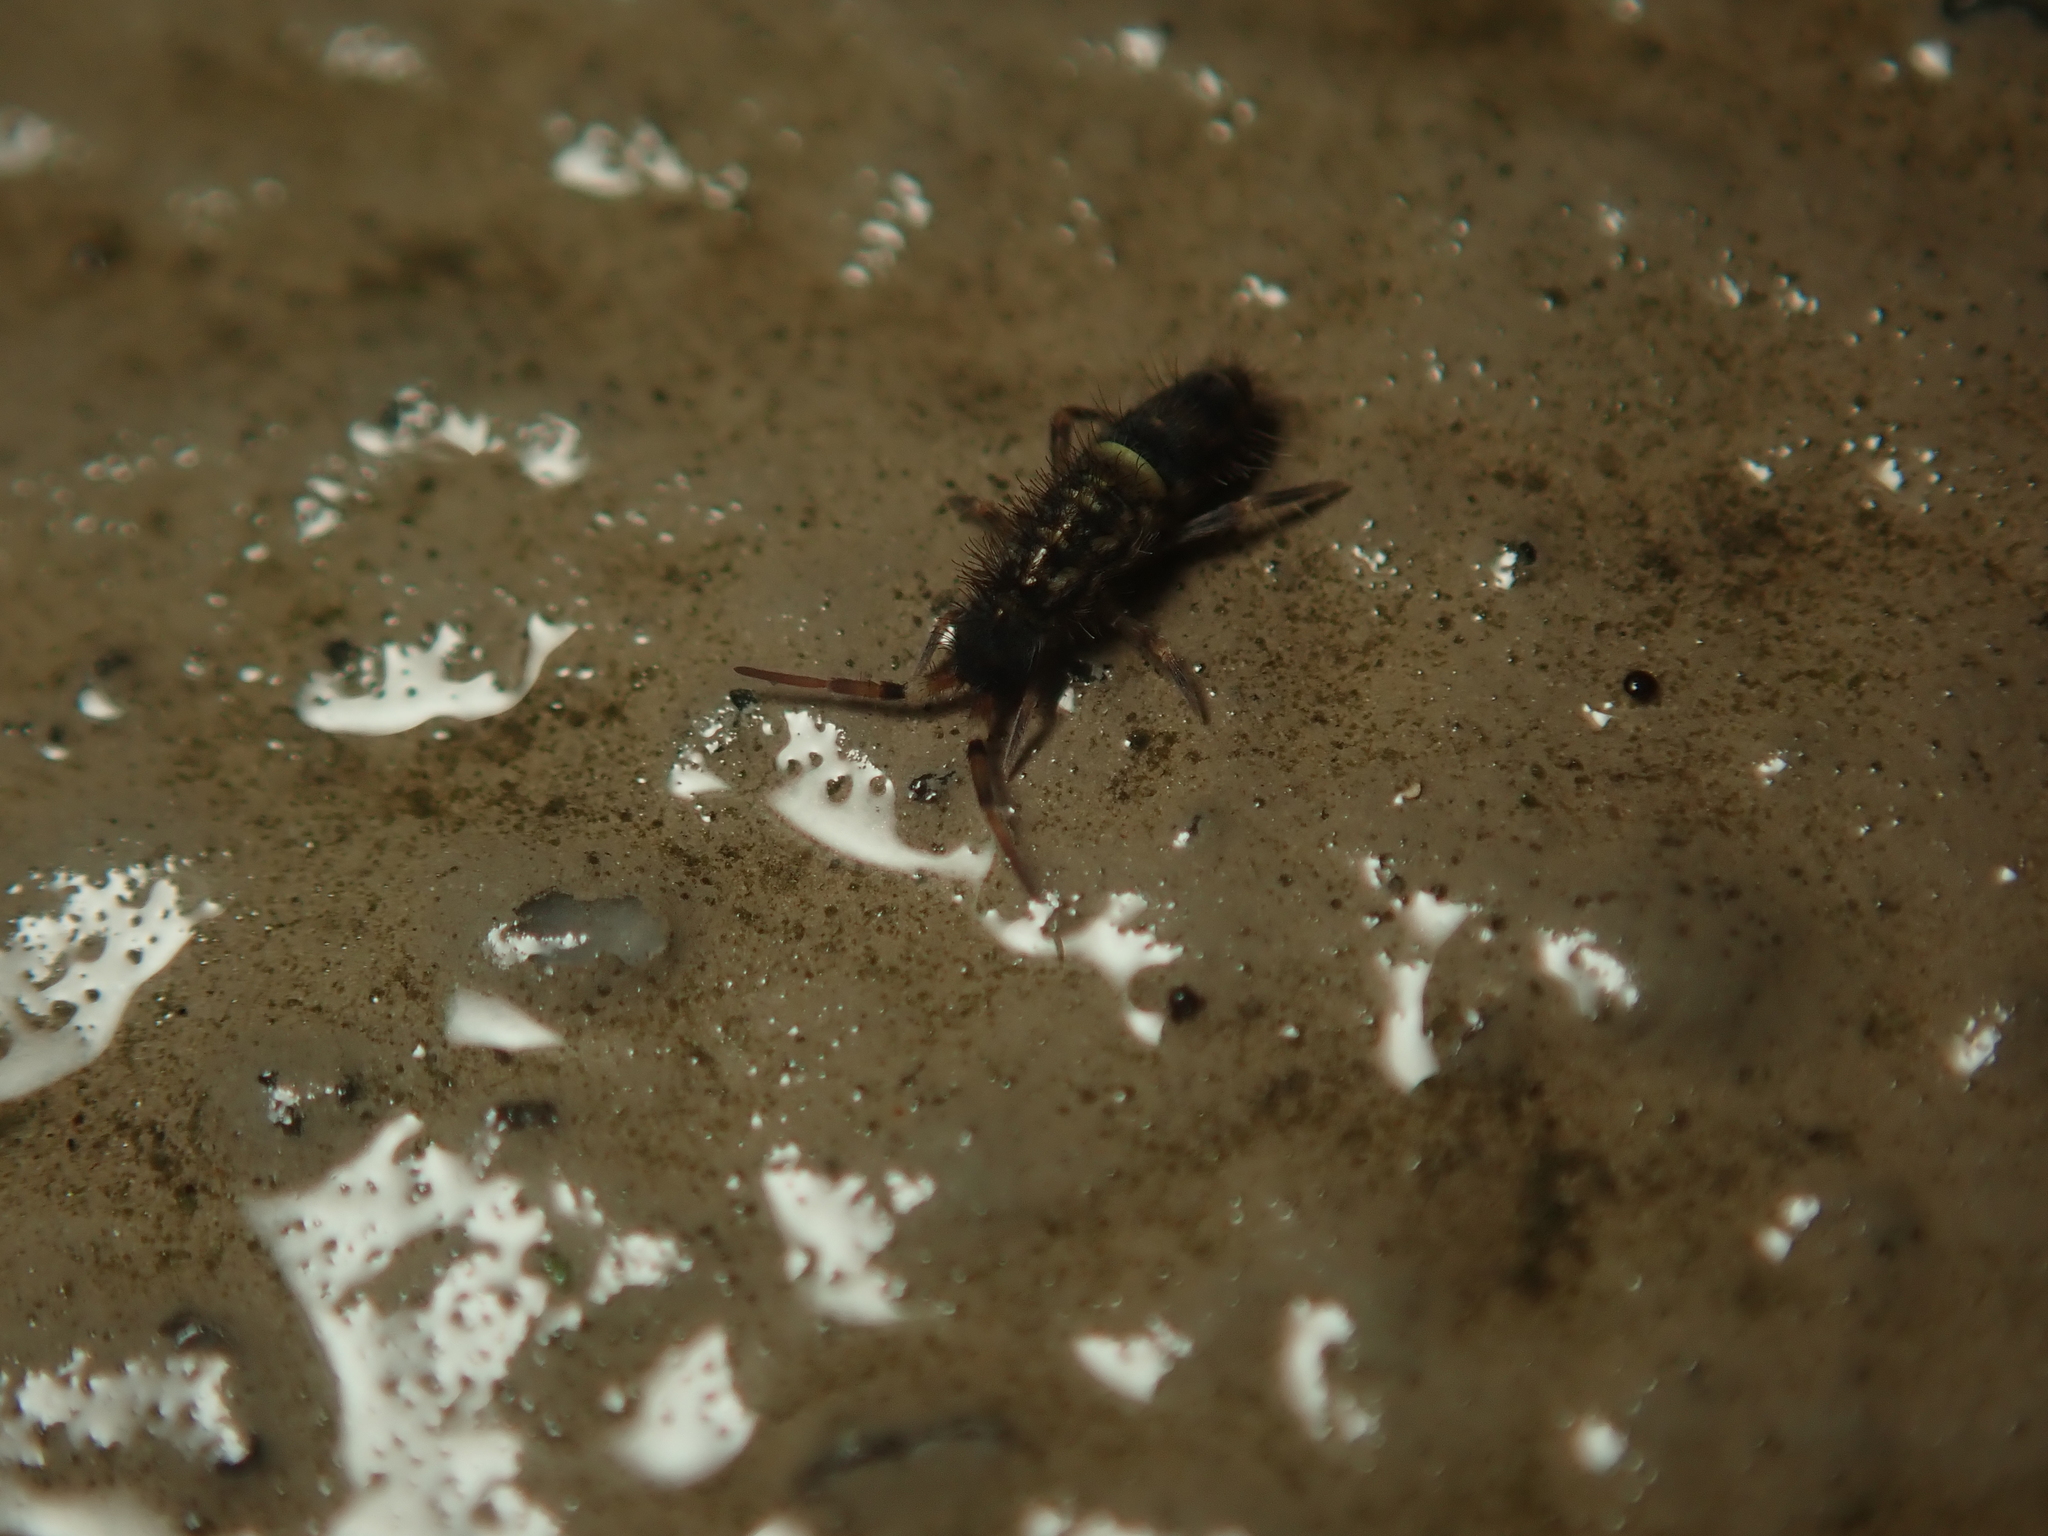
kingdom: Animalia
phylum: Arthropoda
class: Collembola
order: Entomobryomorpha
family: Orchesellidae
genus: Orchesella
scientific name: Orchesella cincta
